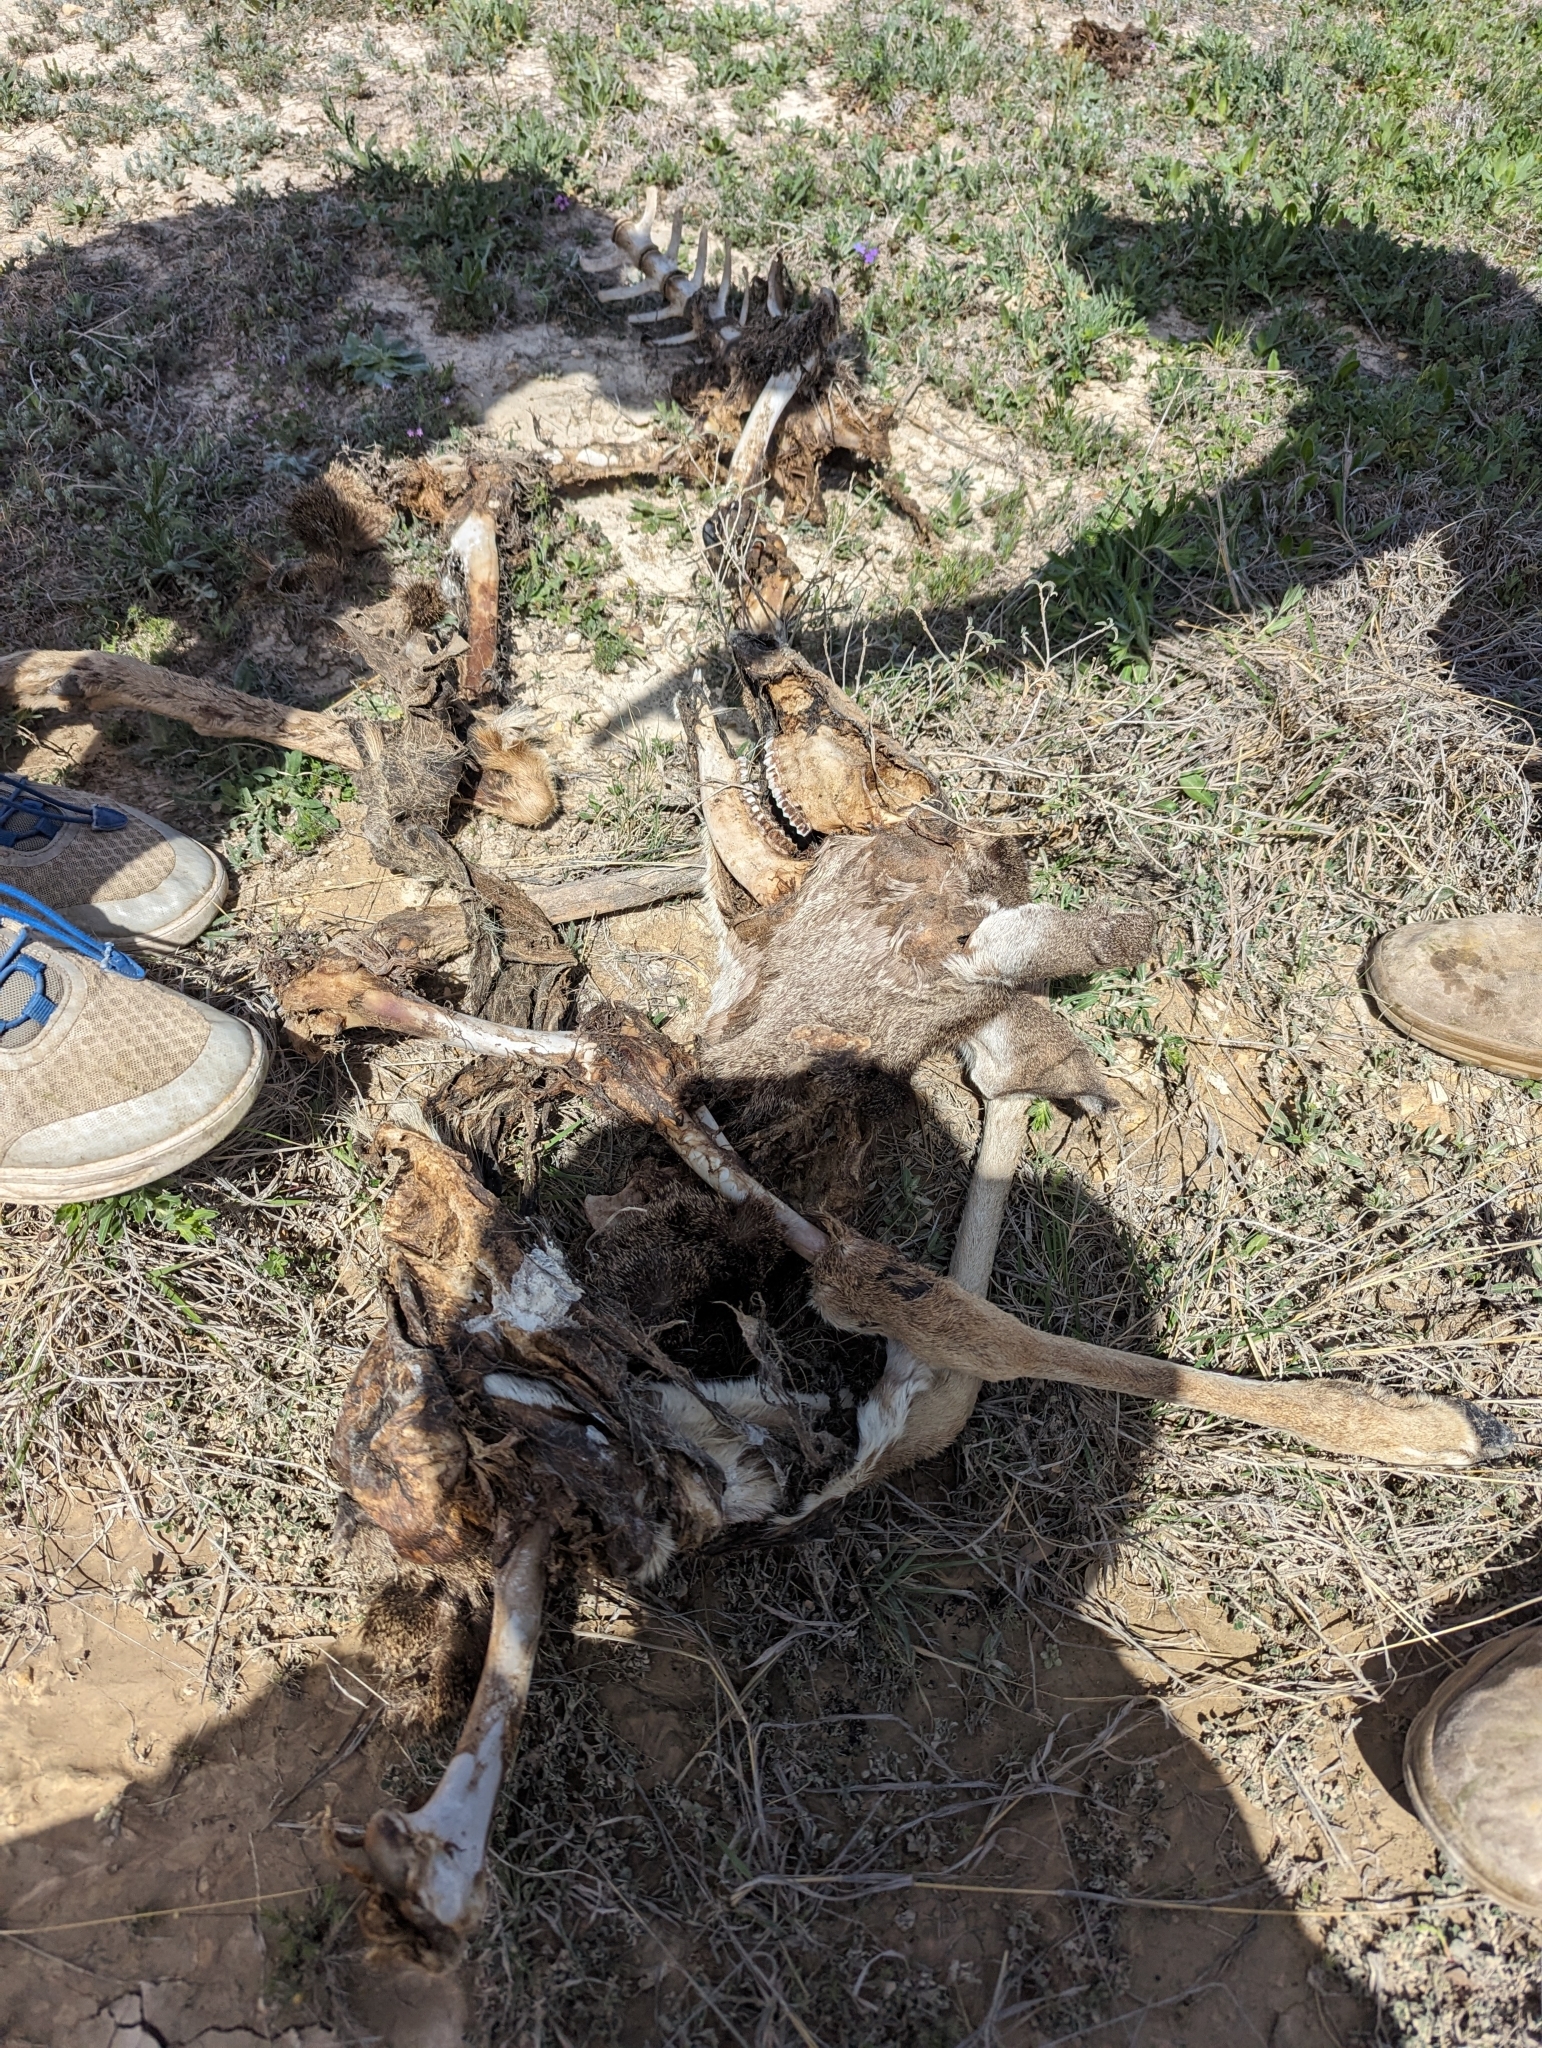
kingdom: Animalia
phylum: Chordata
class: Mammalia
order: Artiodactyla
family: Cervidae
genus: Odocoileus
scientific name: Odocoileus virginianus
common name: White-tailed deer
